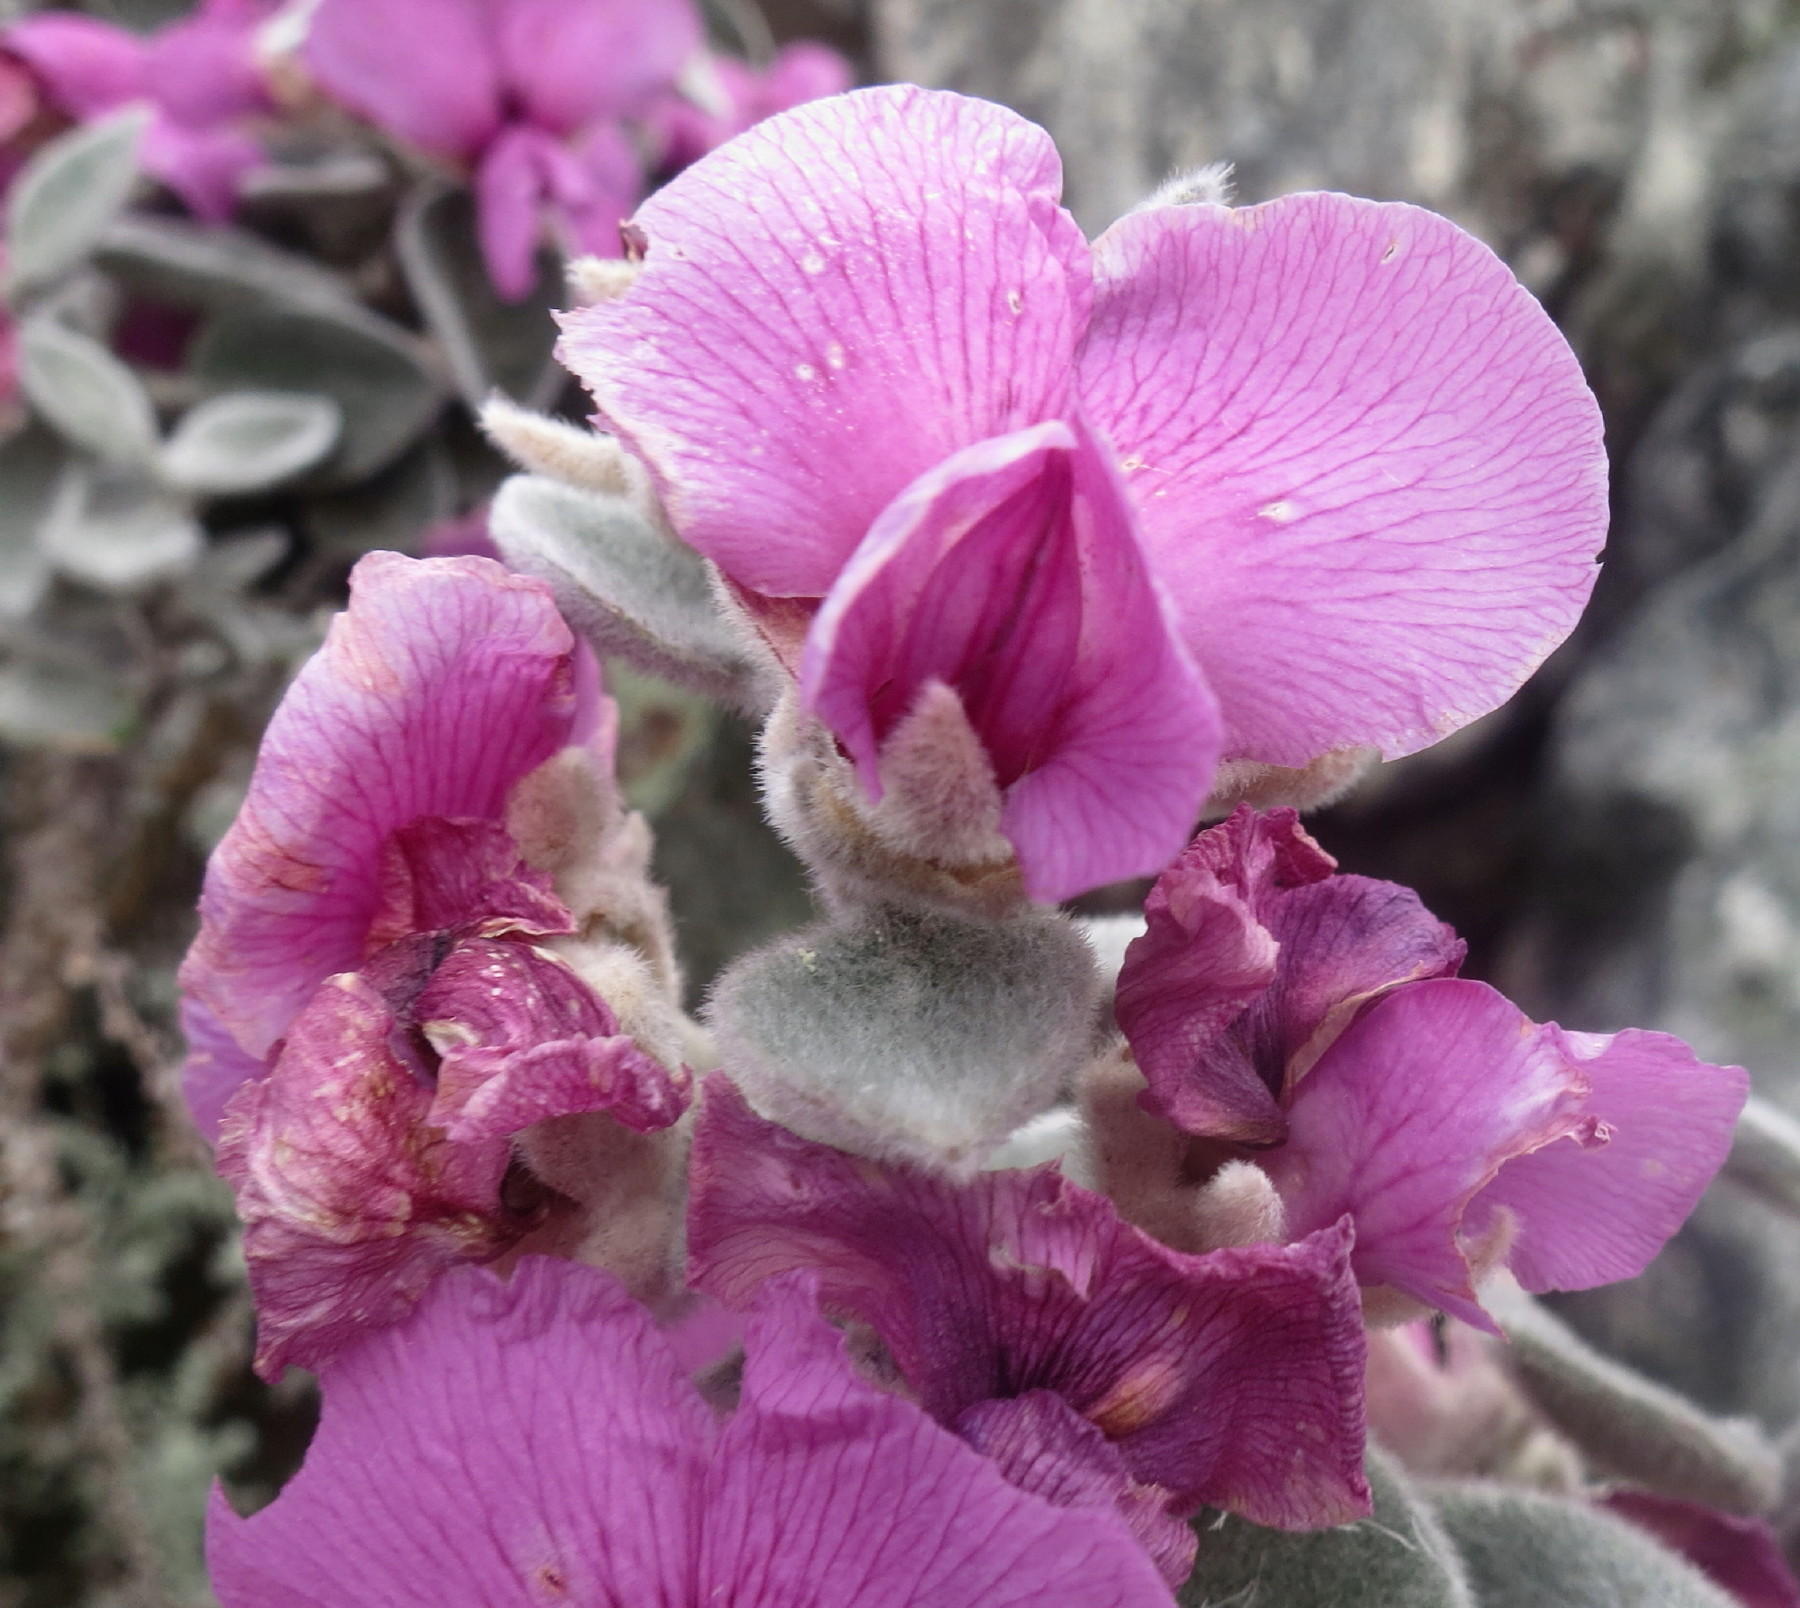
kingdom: Plantae
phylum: Tracheophyta
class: Magnoliopsida
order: Fabales
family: Fabaceae
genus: Podalyria
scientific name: Podalyria hirsuta
